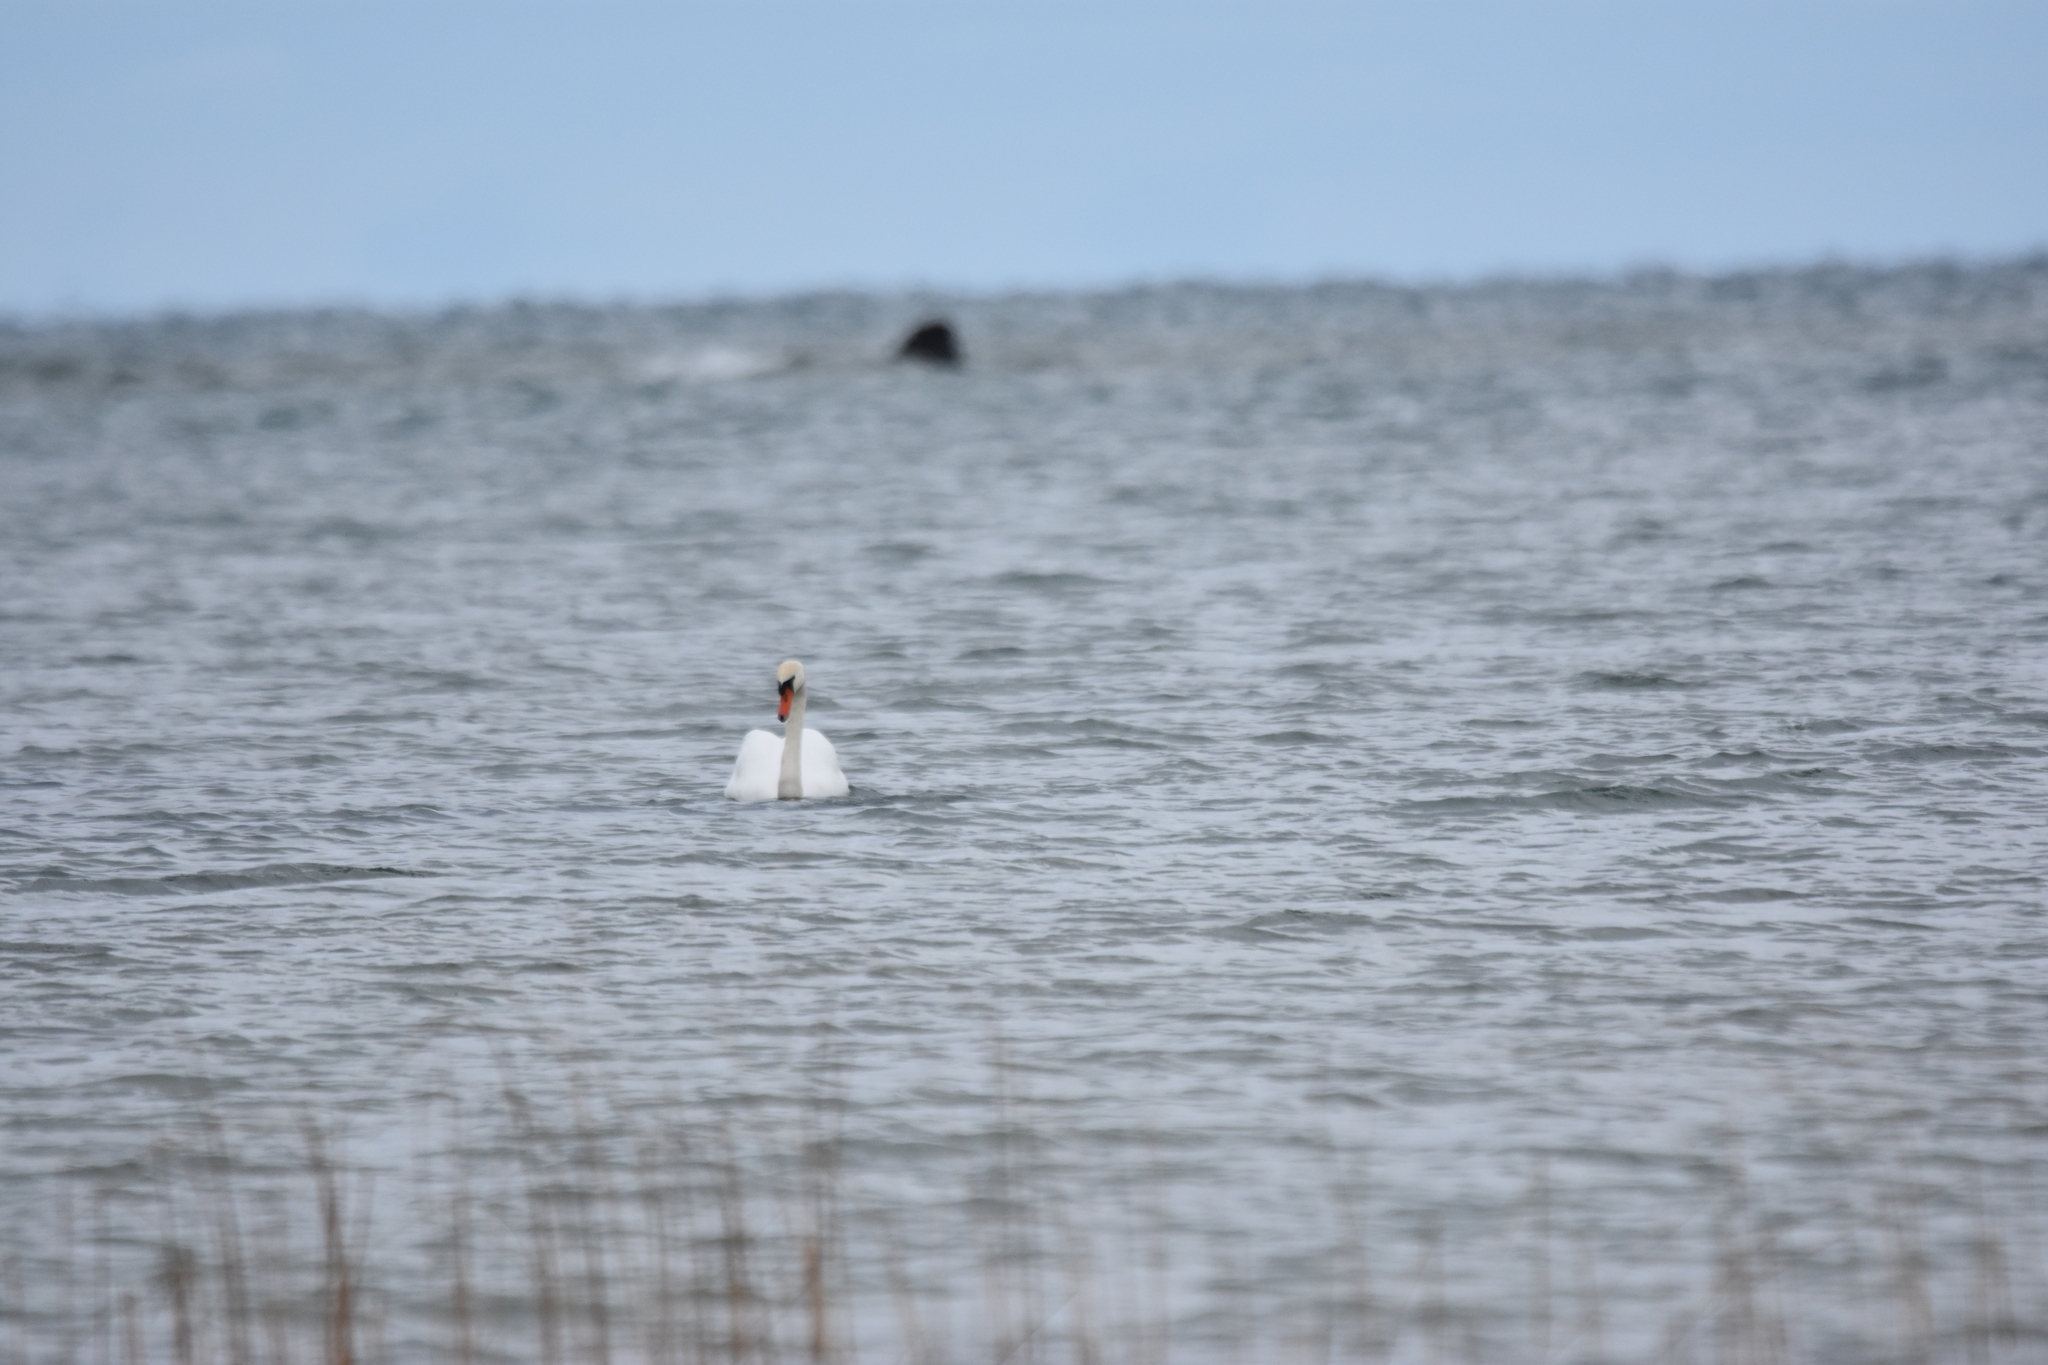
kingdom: Animalia
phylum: Chordata
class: Aves
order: Anseriformes
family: Anatidae
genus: Cygnus
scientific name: Cygnus olor
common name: Mute swan
